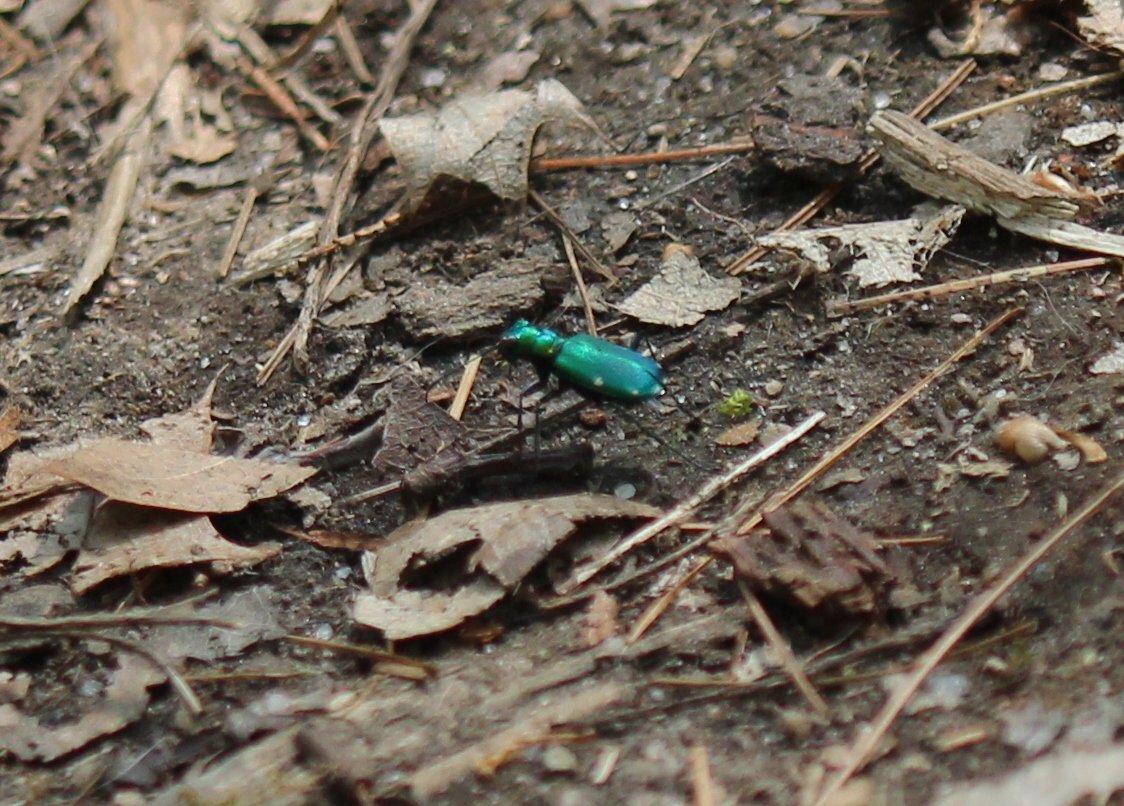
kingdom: Animalia
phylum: Arthropoda
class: Insecta
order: Coleoptera
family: Carabidae
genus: Cicindela
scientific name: Cicindela sexguttata
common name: Six-spotted tiger beetle
